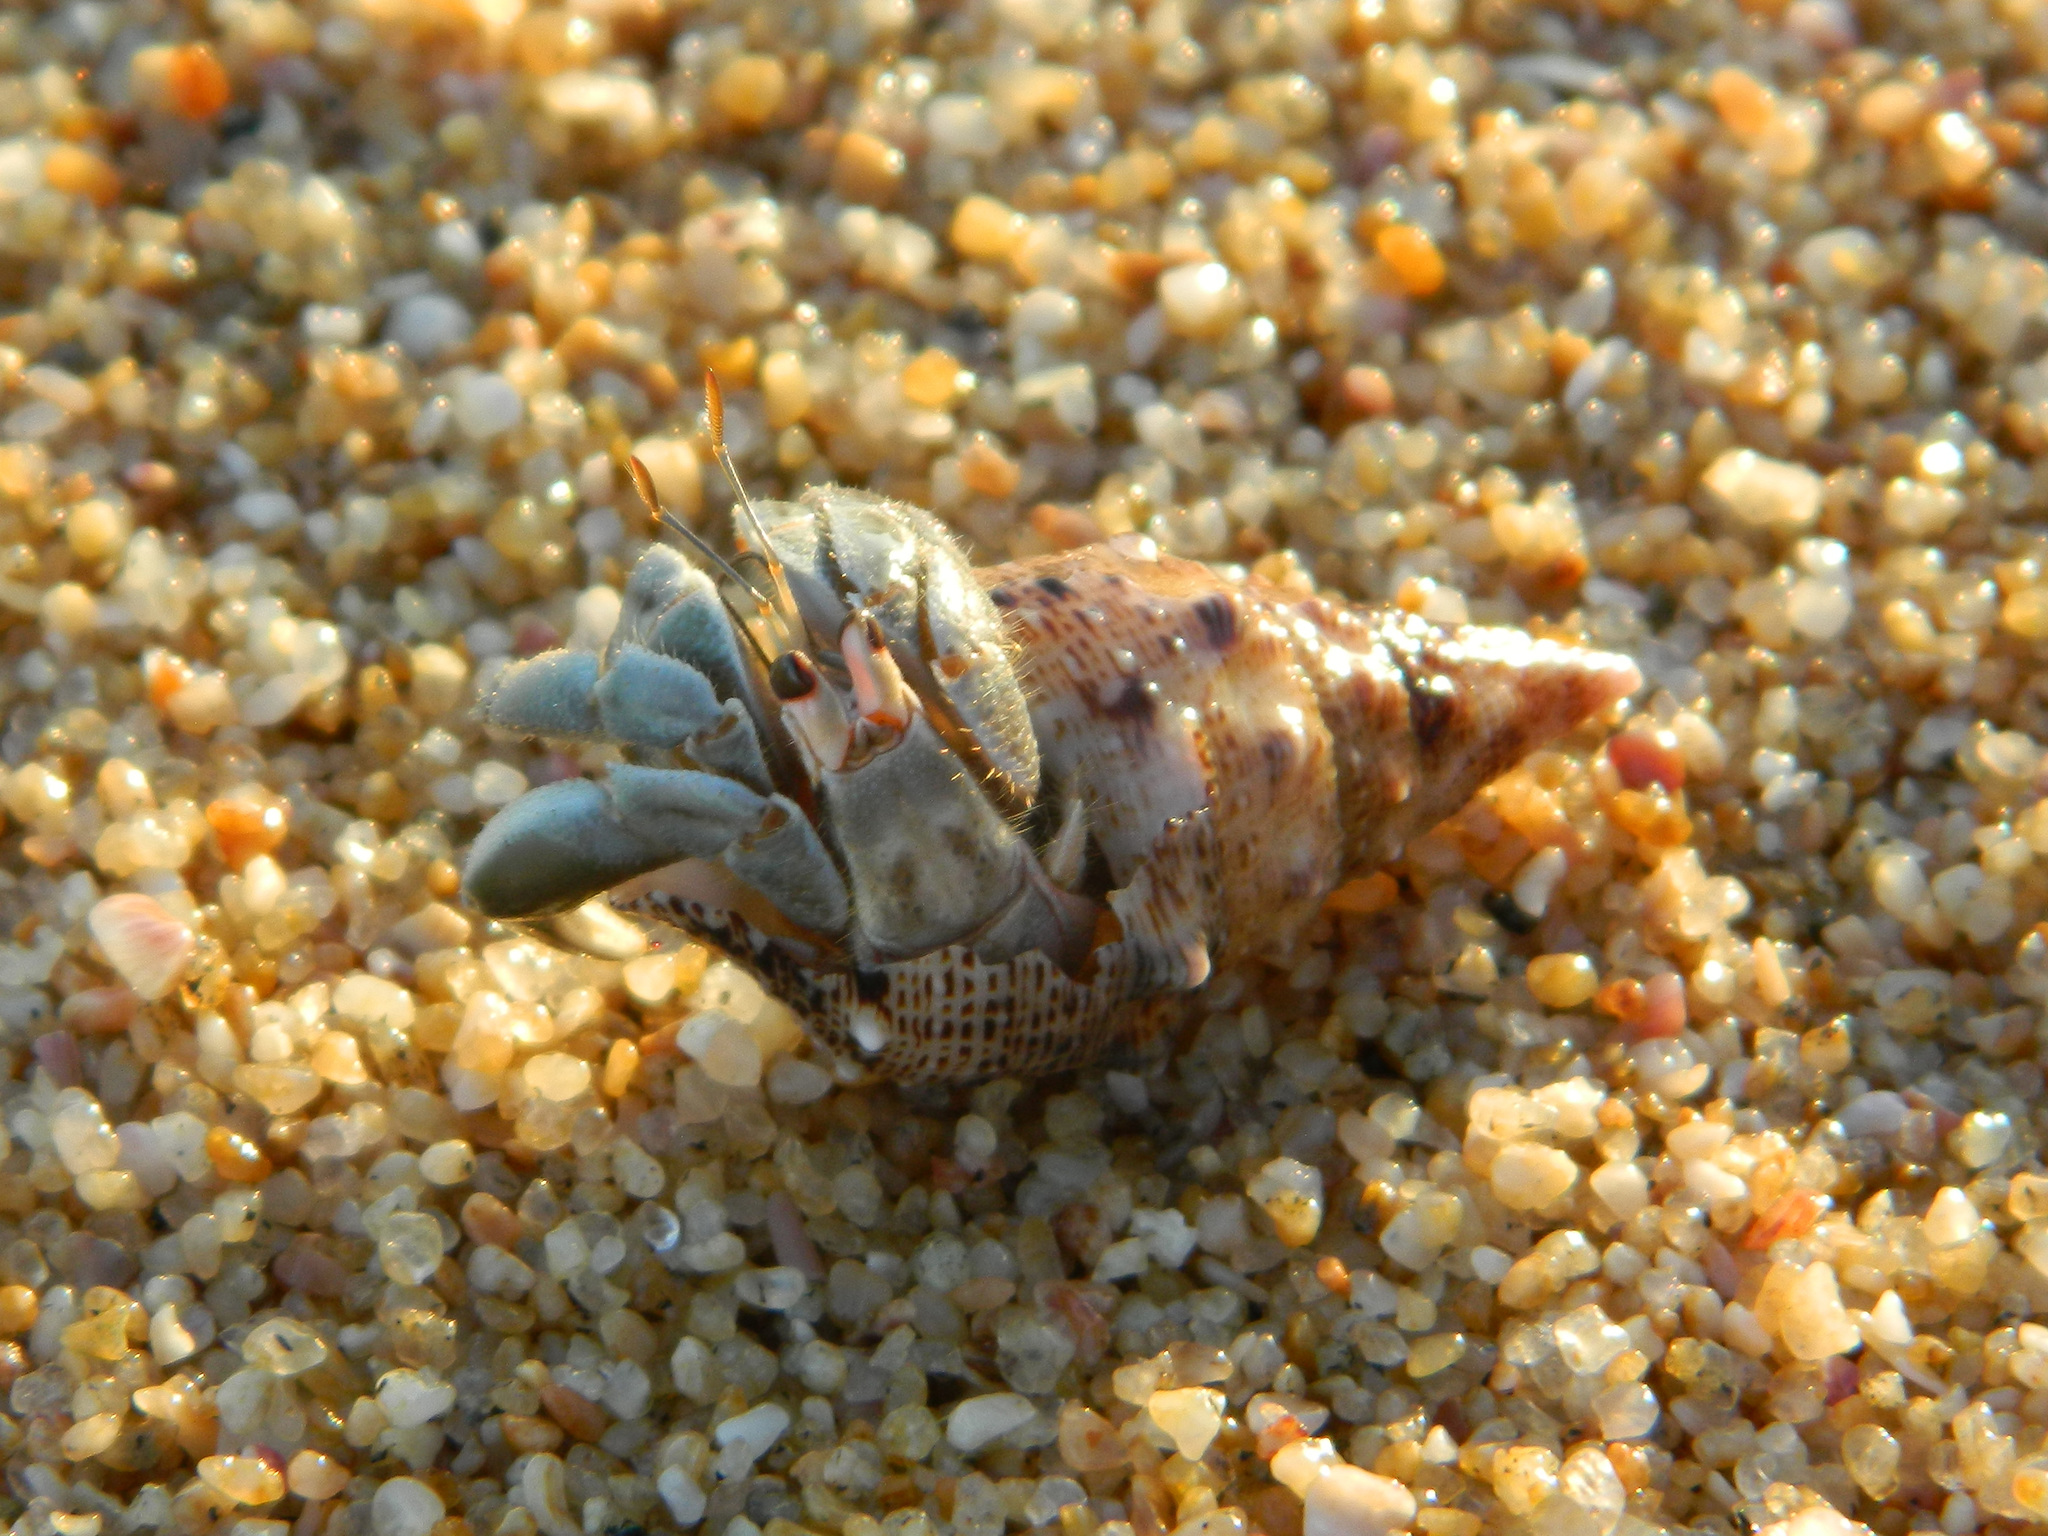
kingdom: Animalia
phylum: Arthropoda
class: Malacostraca
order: Decapoda
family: Coenobitidae
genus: Coenobita
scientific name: Coenobita compressus
